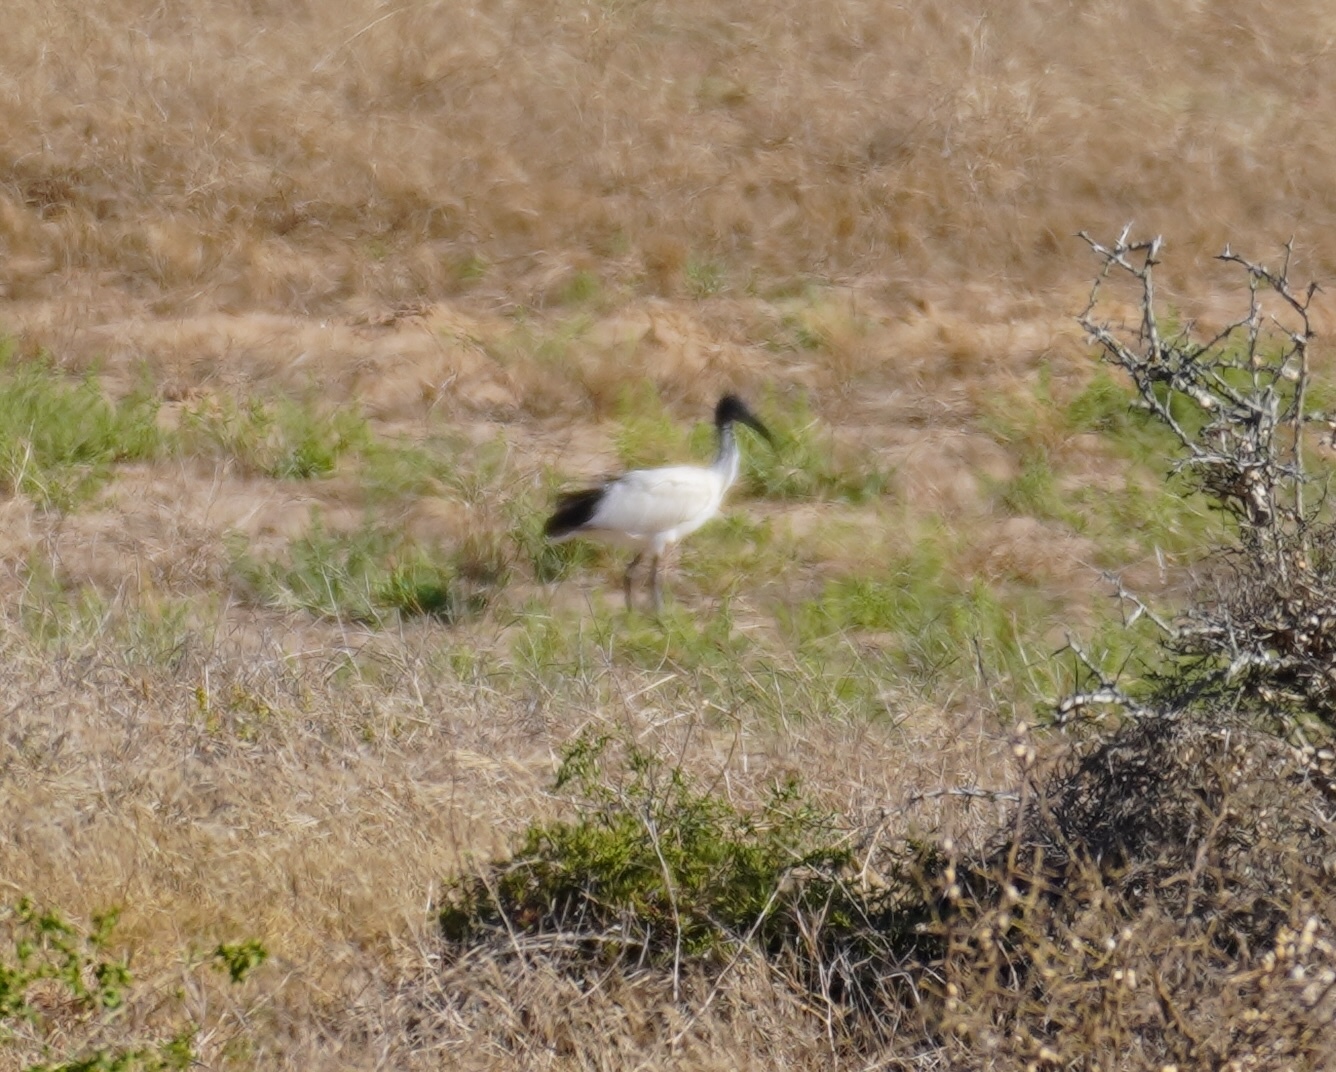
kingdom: Animalia
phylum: Chordata
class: Aves
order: Pelecaniformes
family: Threskiornithidae
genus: Threskiornis
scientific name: Threskiornis aethiopicus
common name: Sacred ibis
